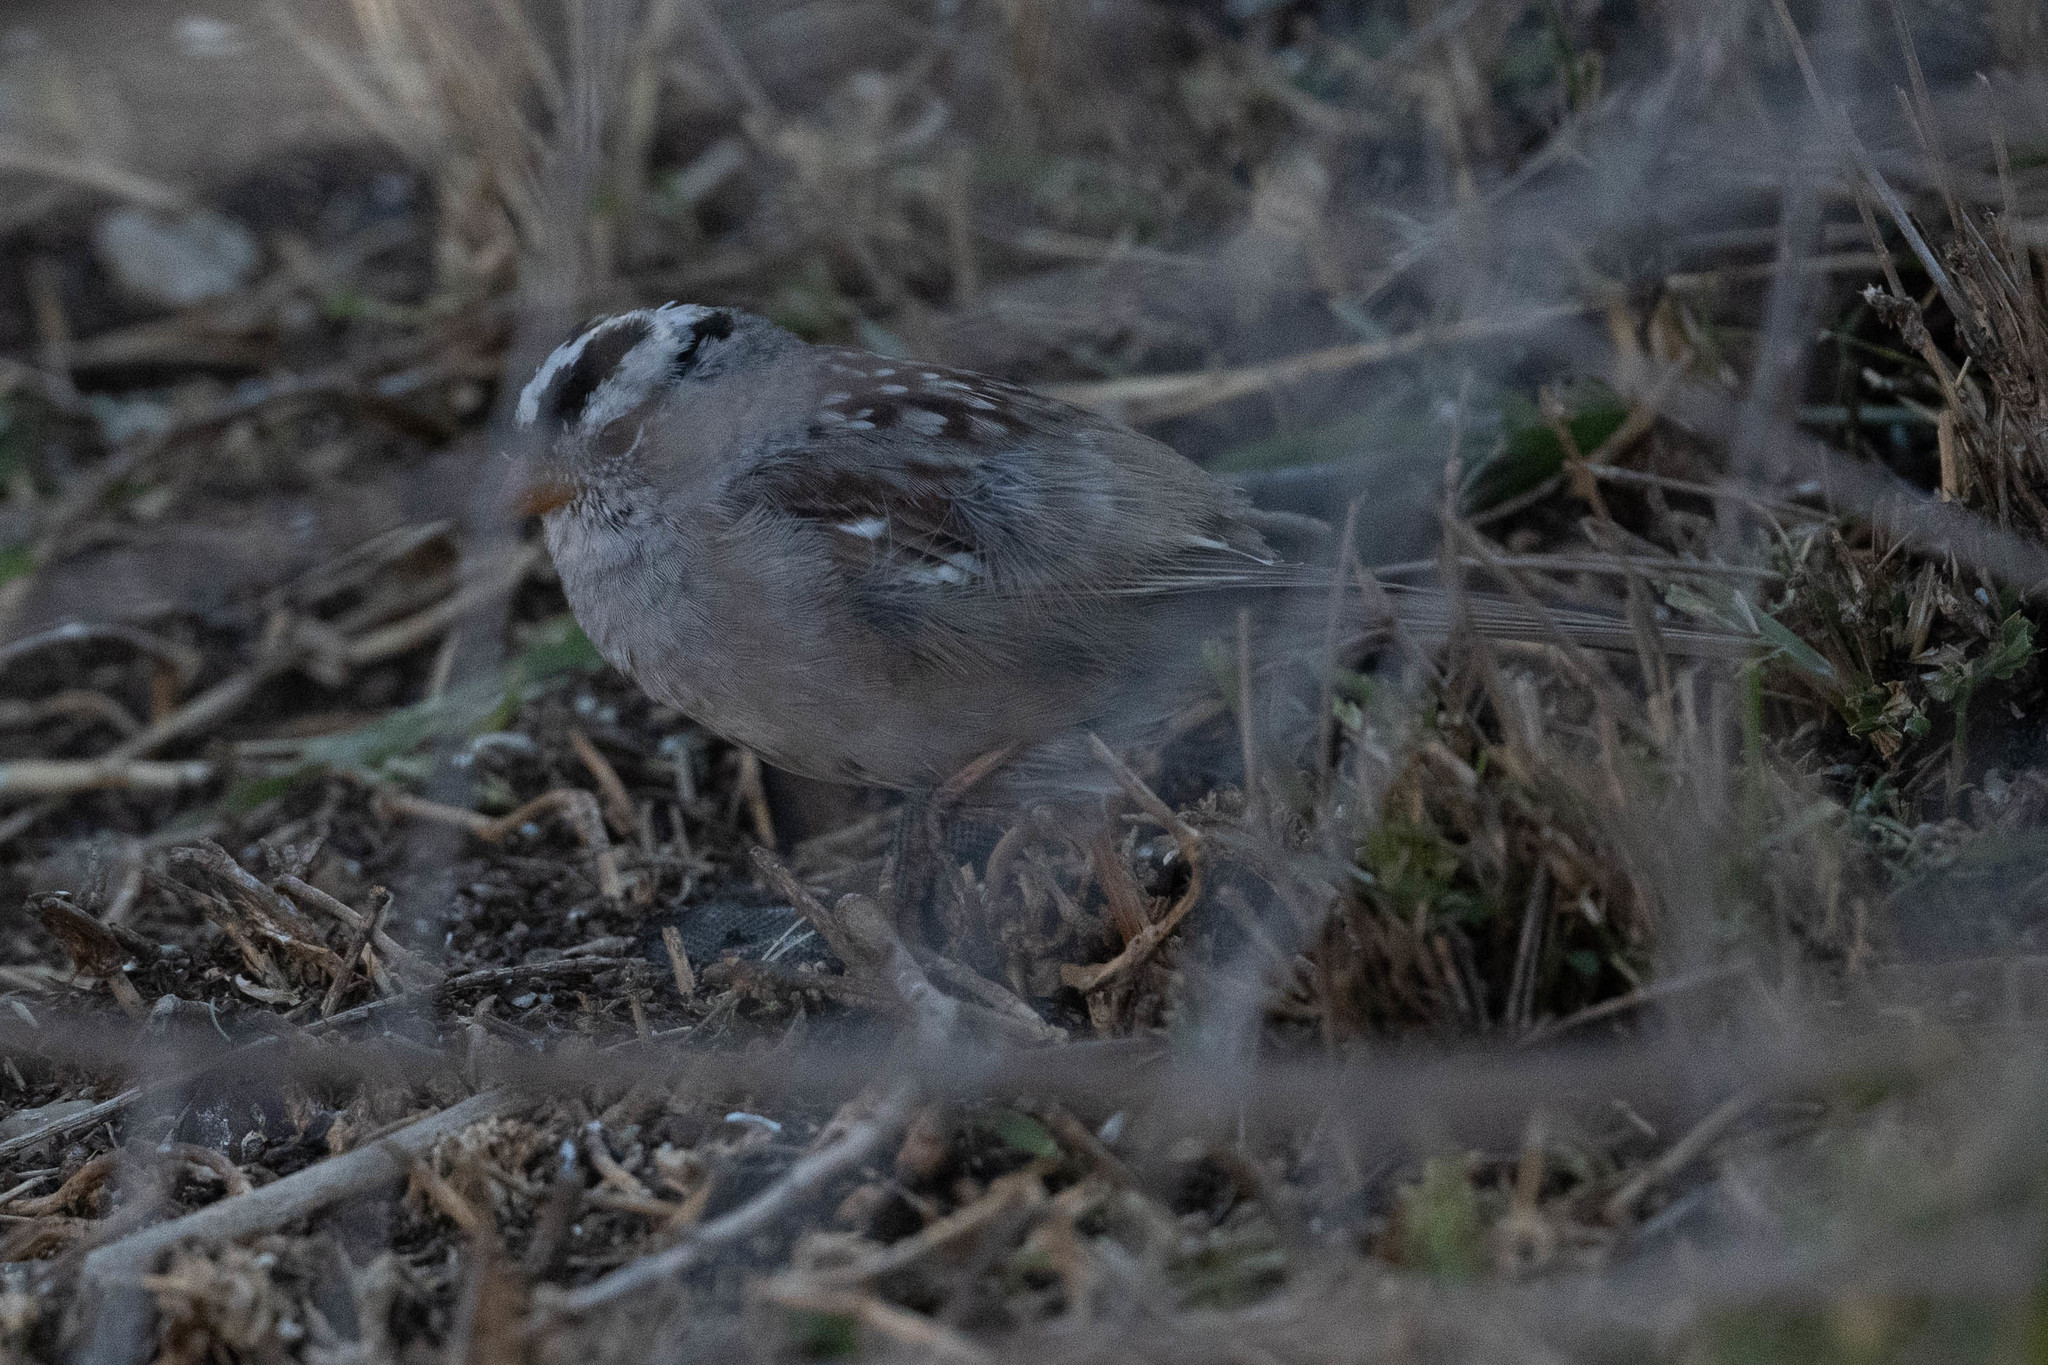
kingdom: Animalia
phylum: Chordata
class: Aves
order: Passeriformes
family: Passerellidae
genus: Zonotrichia
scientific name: Zonotrichia leucophrys
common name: White-crowned sparrow
